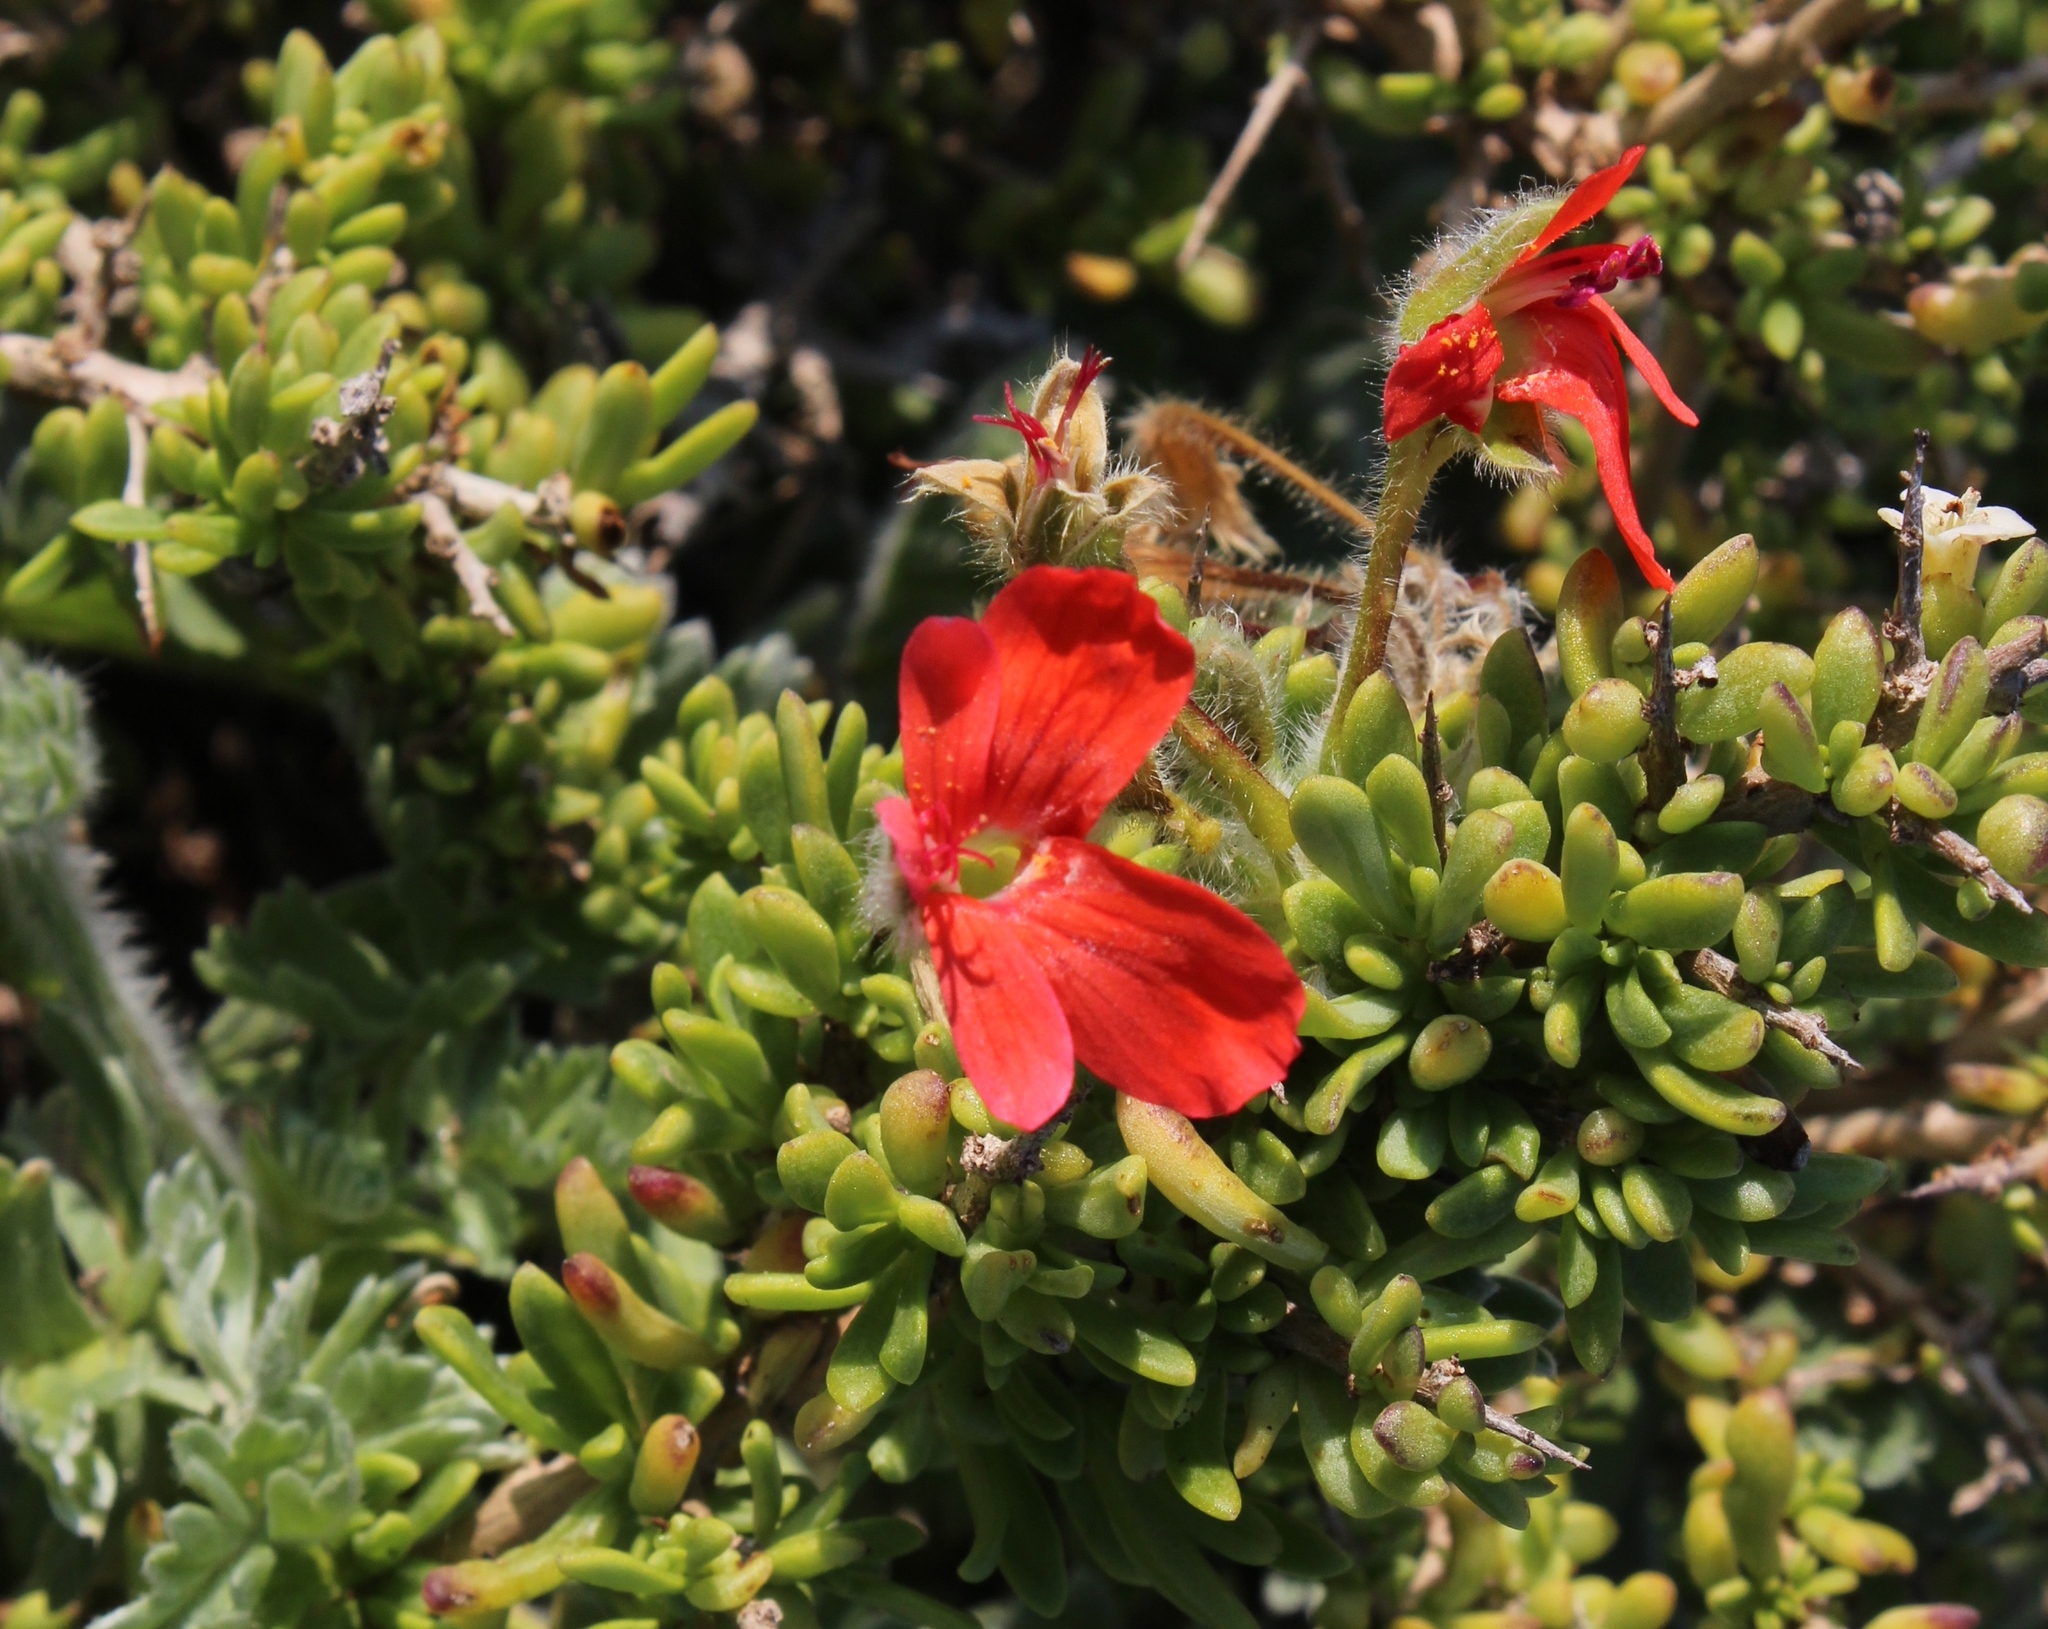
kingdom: Plantae
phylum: Tracheophyta
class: Magnoliopsida
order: Geraniales
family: Geraniaceae
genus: Pelargonium
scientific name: Pelargonium fulgidum
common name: Celandine-leaf pelargonium
